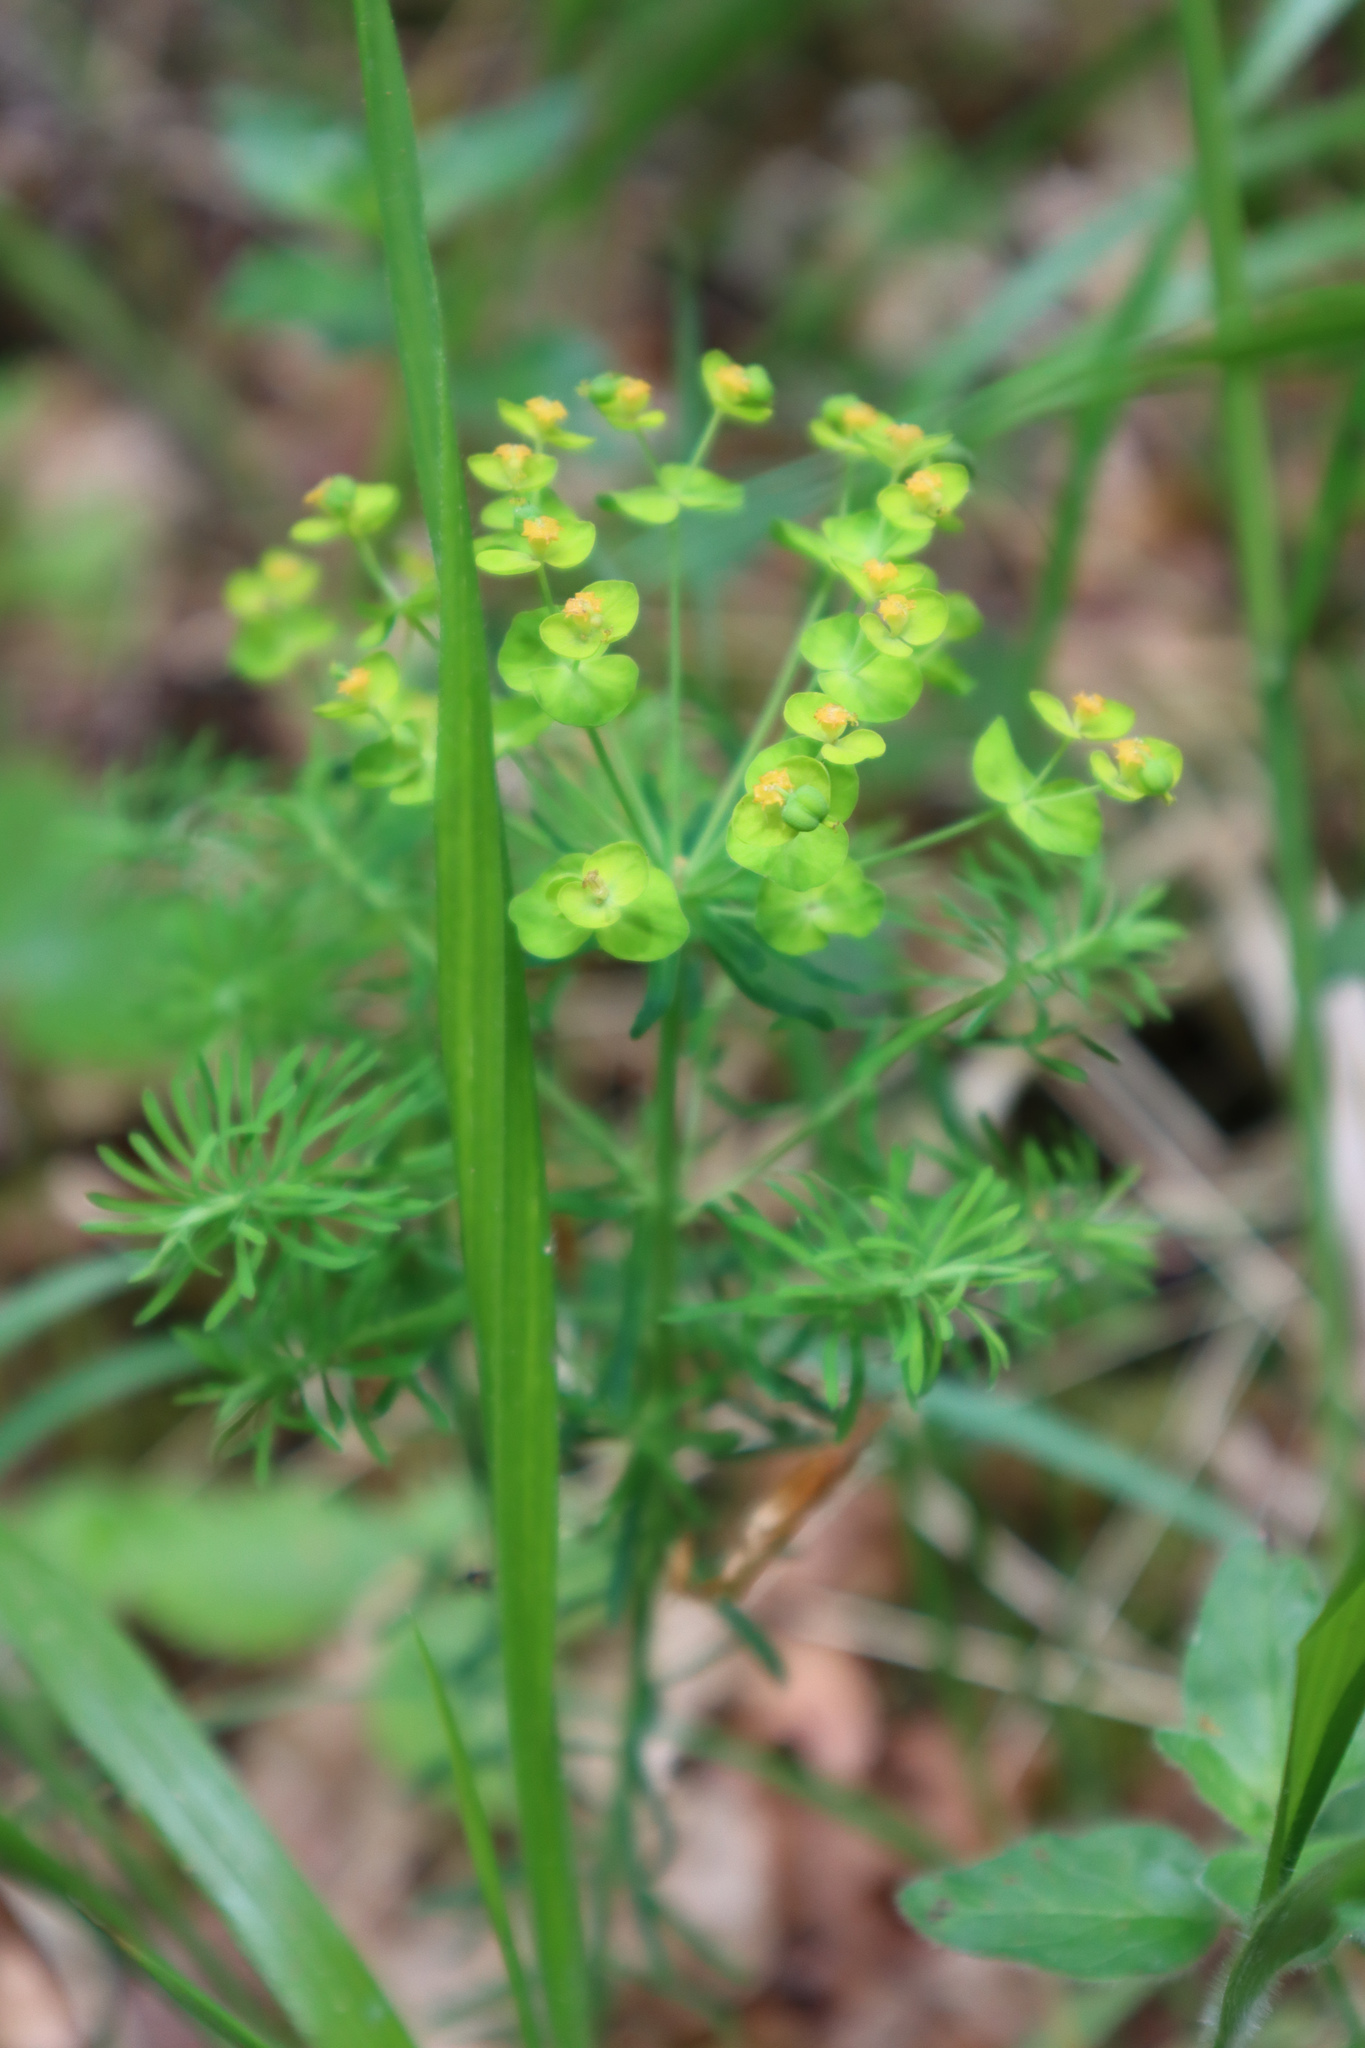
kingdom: Plantae
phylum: Tracheophyta
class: Magnoliopsida
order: Malpighiales
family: Euphorbiaceae
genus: Euphorbia
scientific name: Euphorbia cyparissias
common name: Cypress spurge
